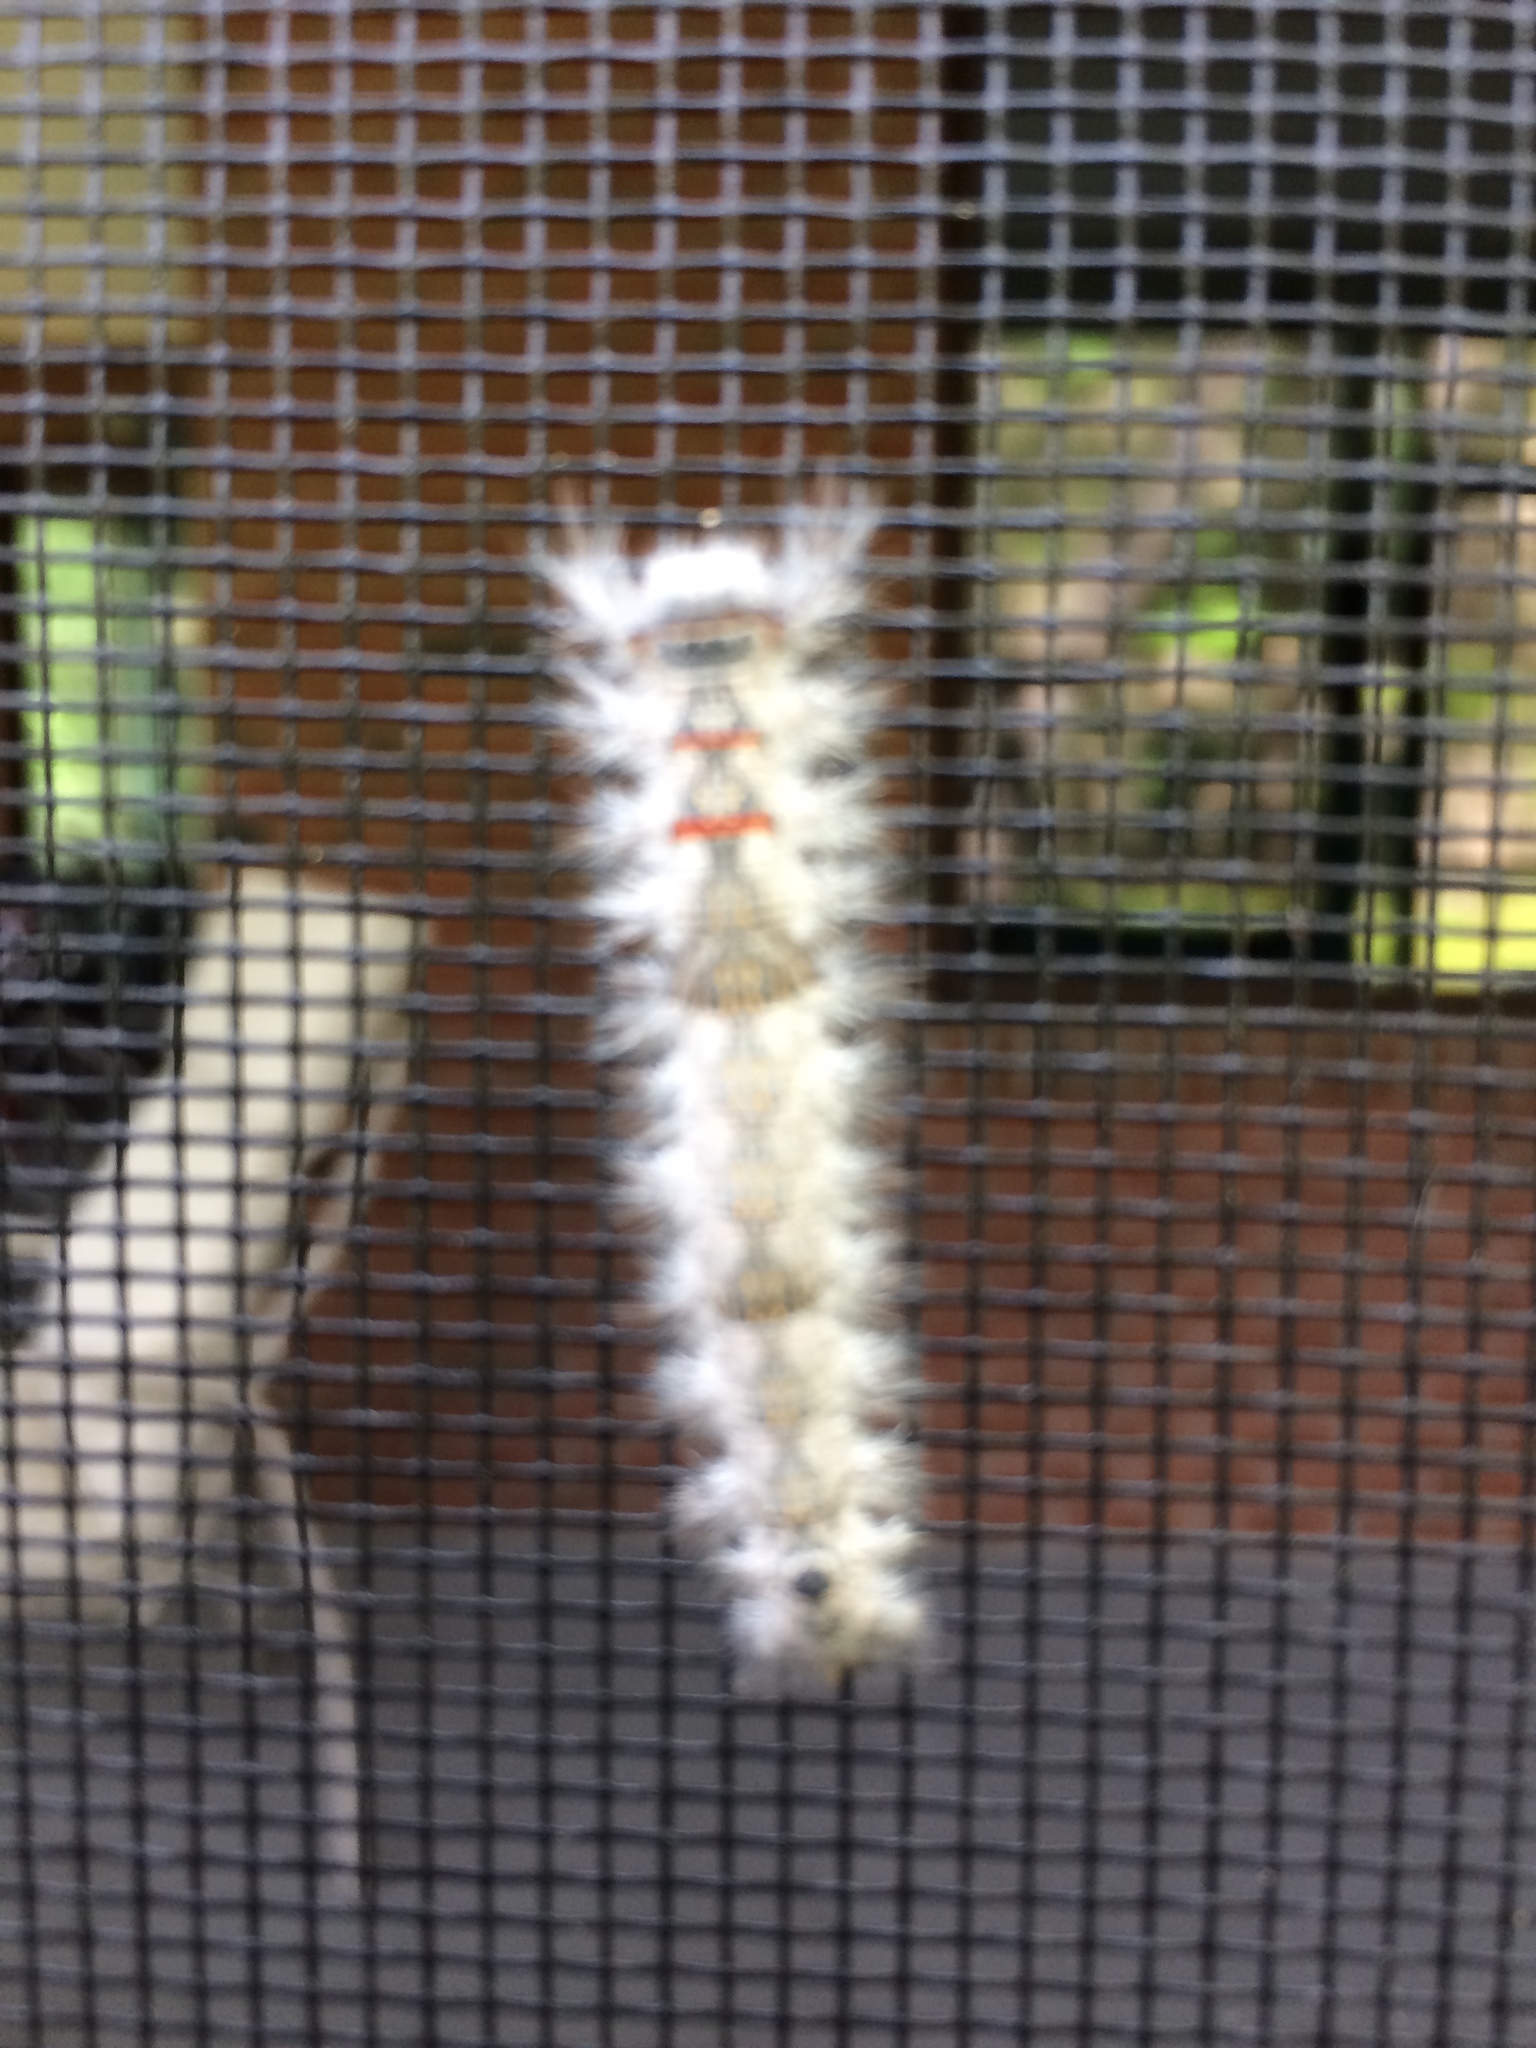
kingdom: Animalia
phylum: Arthropoda
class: Insecta
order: Lepidoptera
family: Lasiocampidae
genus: Phyllodesma
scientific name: Phyllodesma americana
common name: American lappet moth
